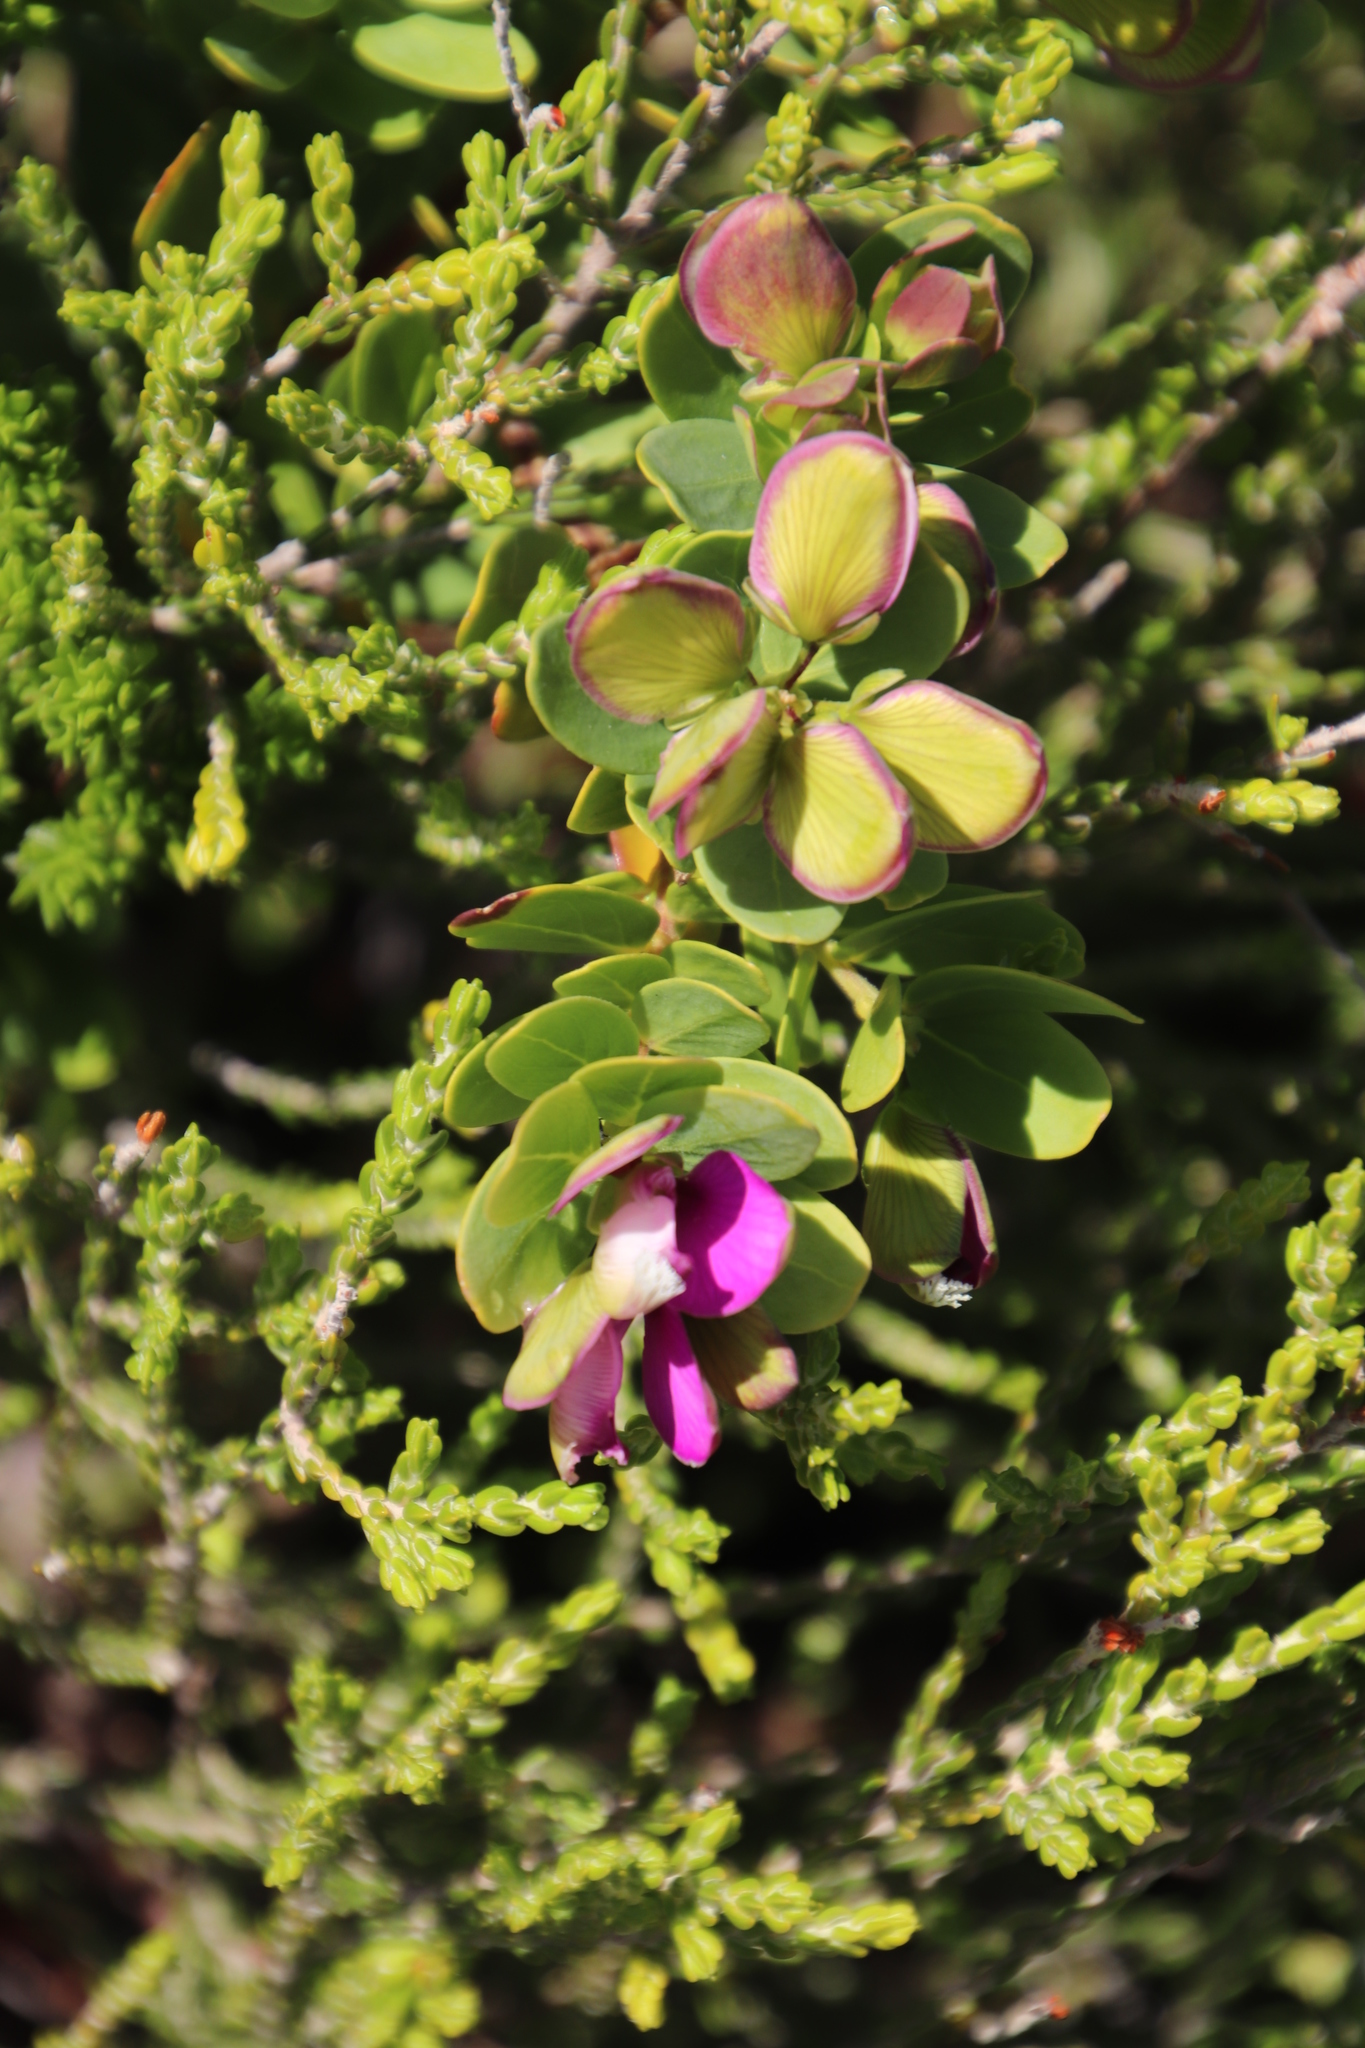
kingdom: Plantae
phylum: Tracheophyta
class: Magnoliopsida
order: Fabales
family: Polygalaceae
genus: Polygala
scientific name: Polygala myrtifolia
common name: Myrtle-leaf milkwort
